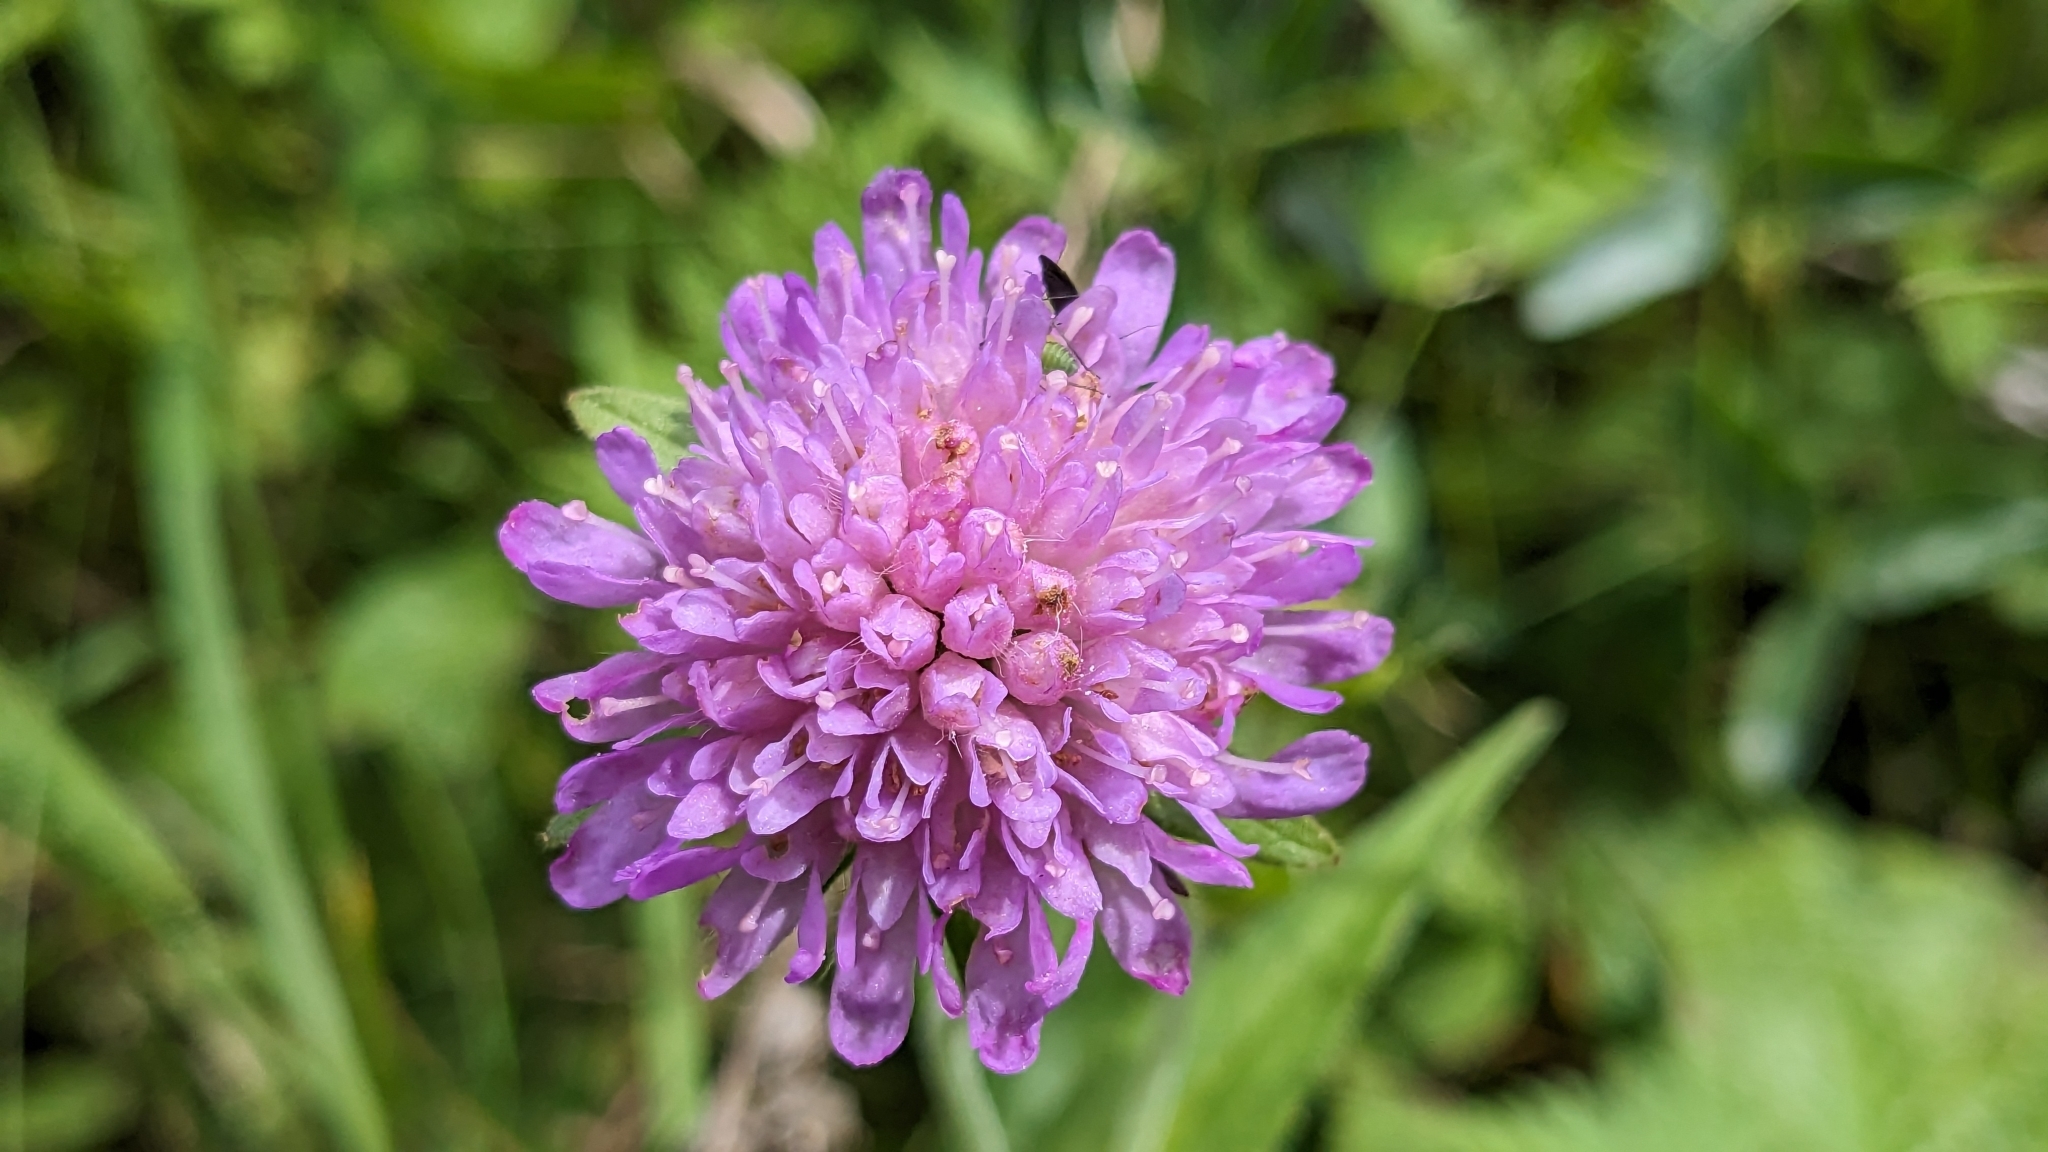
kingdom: Plantae
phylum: Tracheophyta
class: Magnoliopsida
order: Dipsacales
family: Caprifoliaceae
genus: Knautia
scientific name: Knautia dipsacifolia
